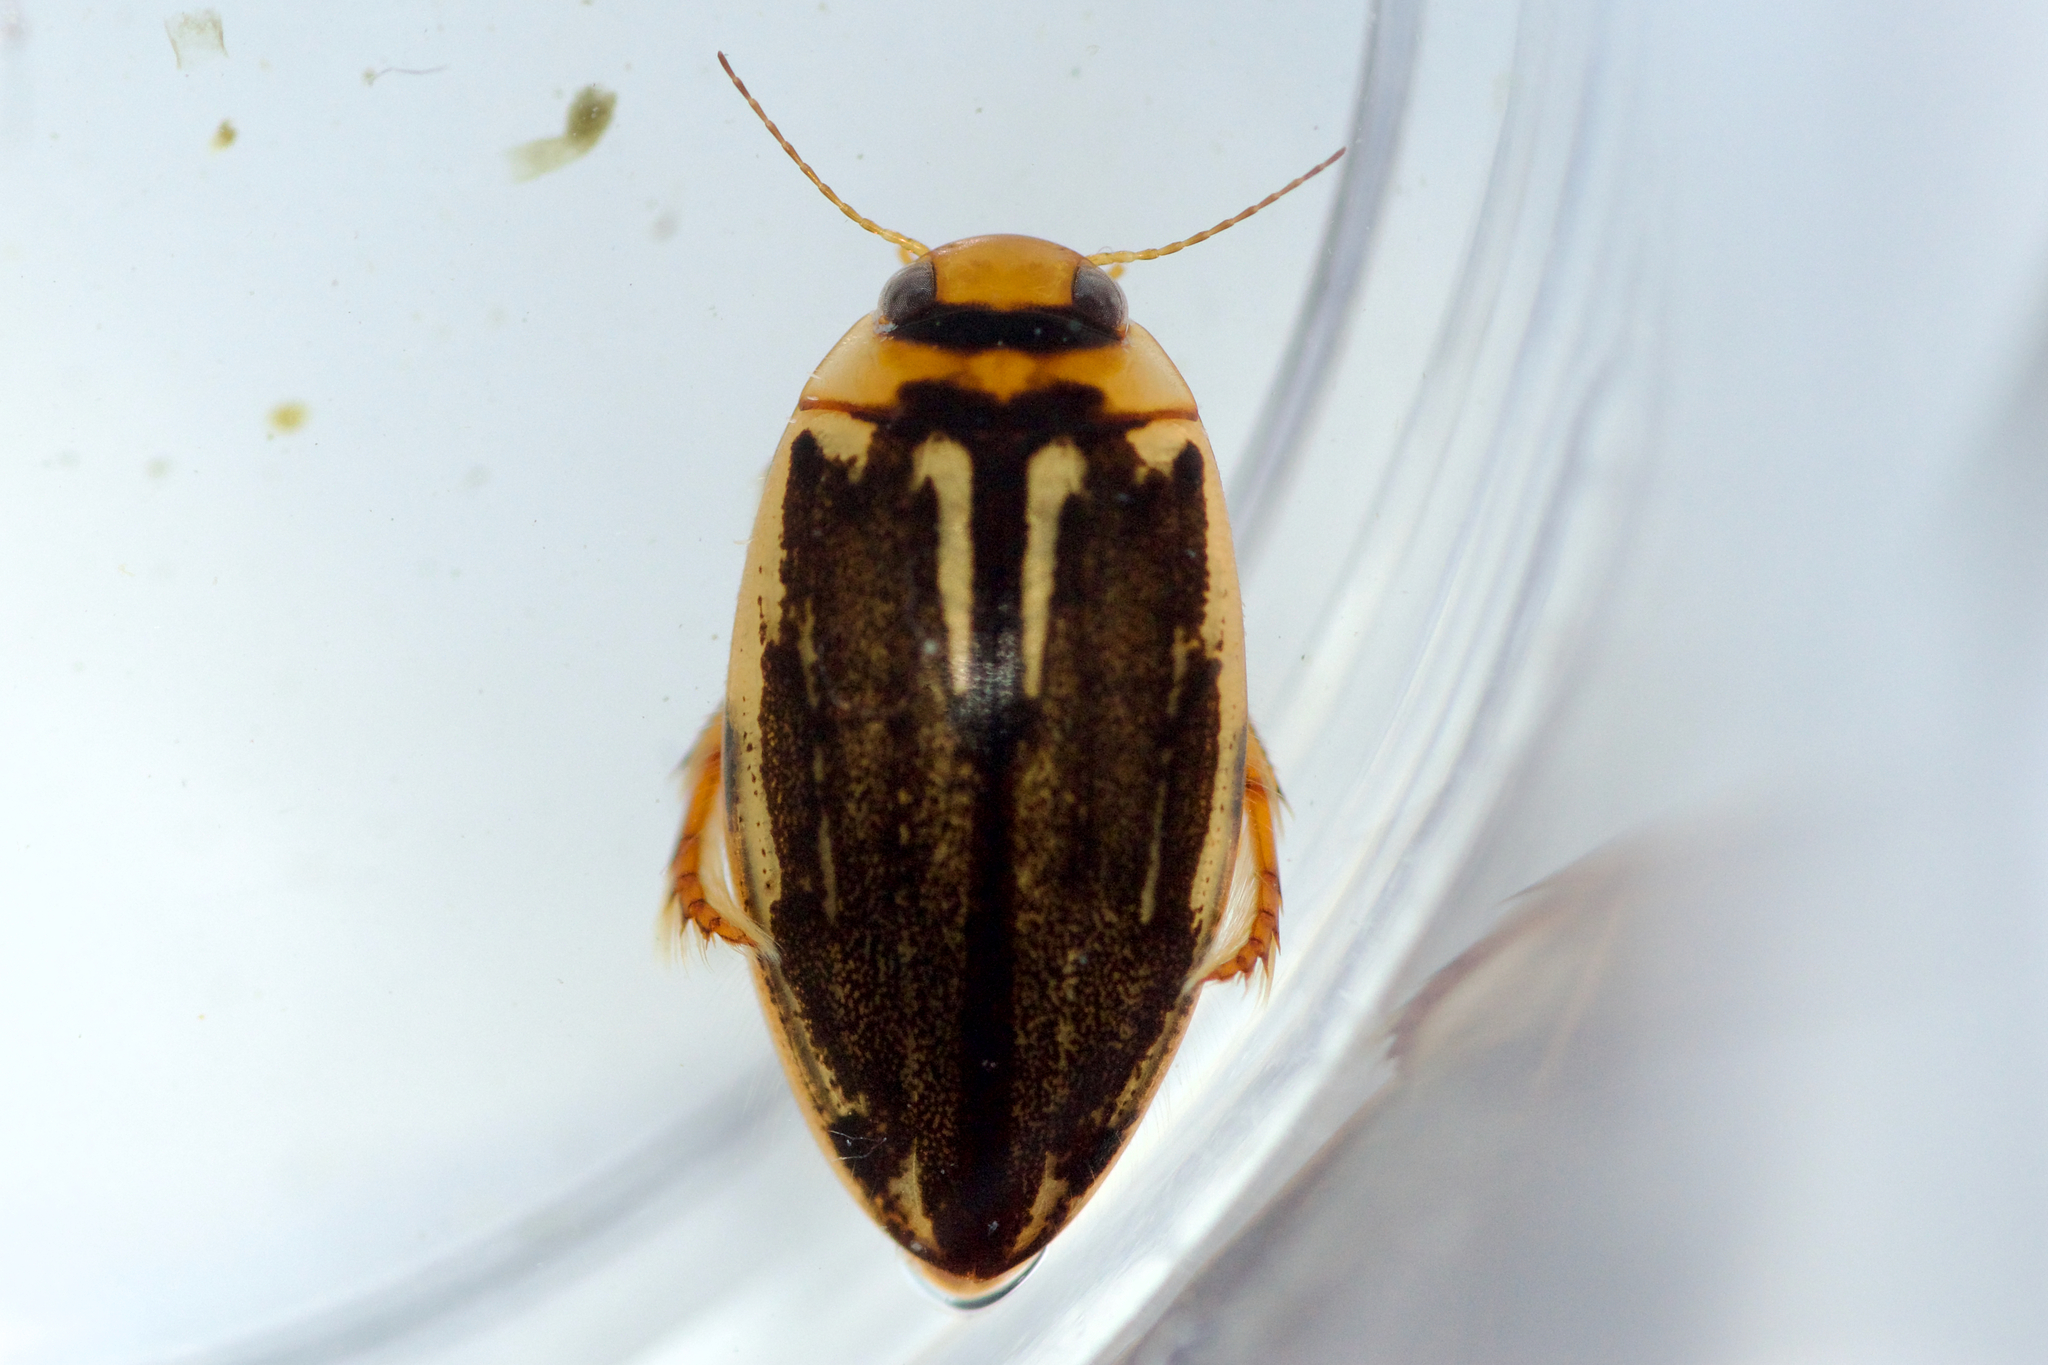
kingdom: Animalia
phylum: Arthropoda
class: Insecta
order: Coleoptera
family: Dytiscidae
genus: Coptotomus
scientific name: Coptotomus longulus
